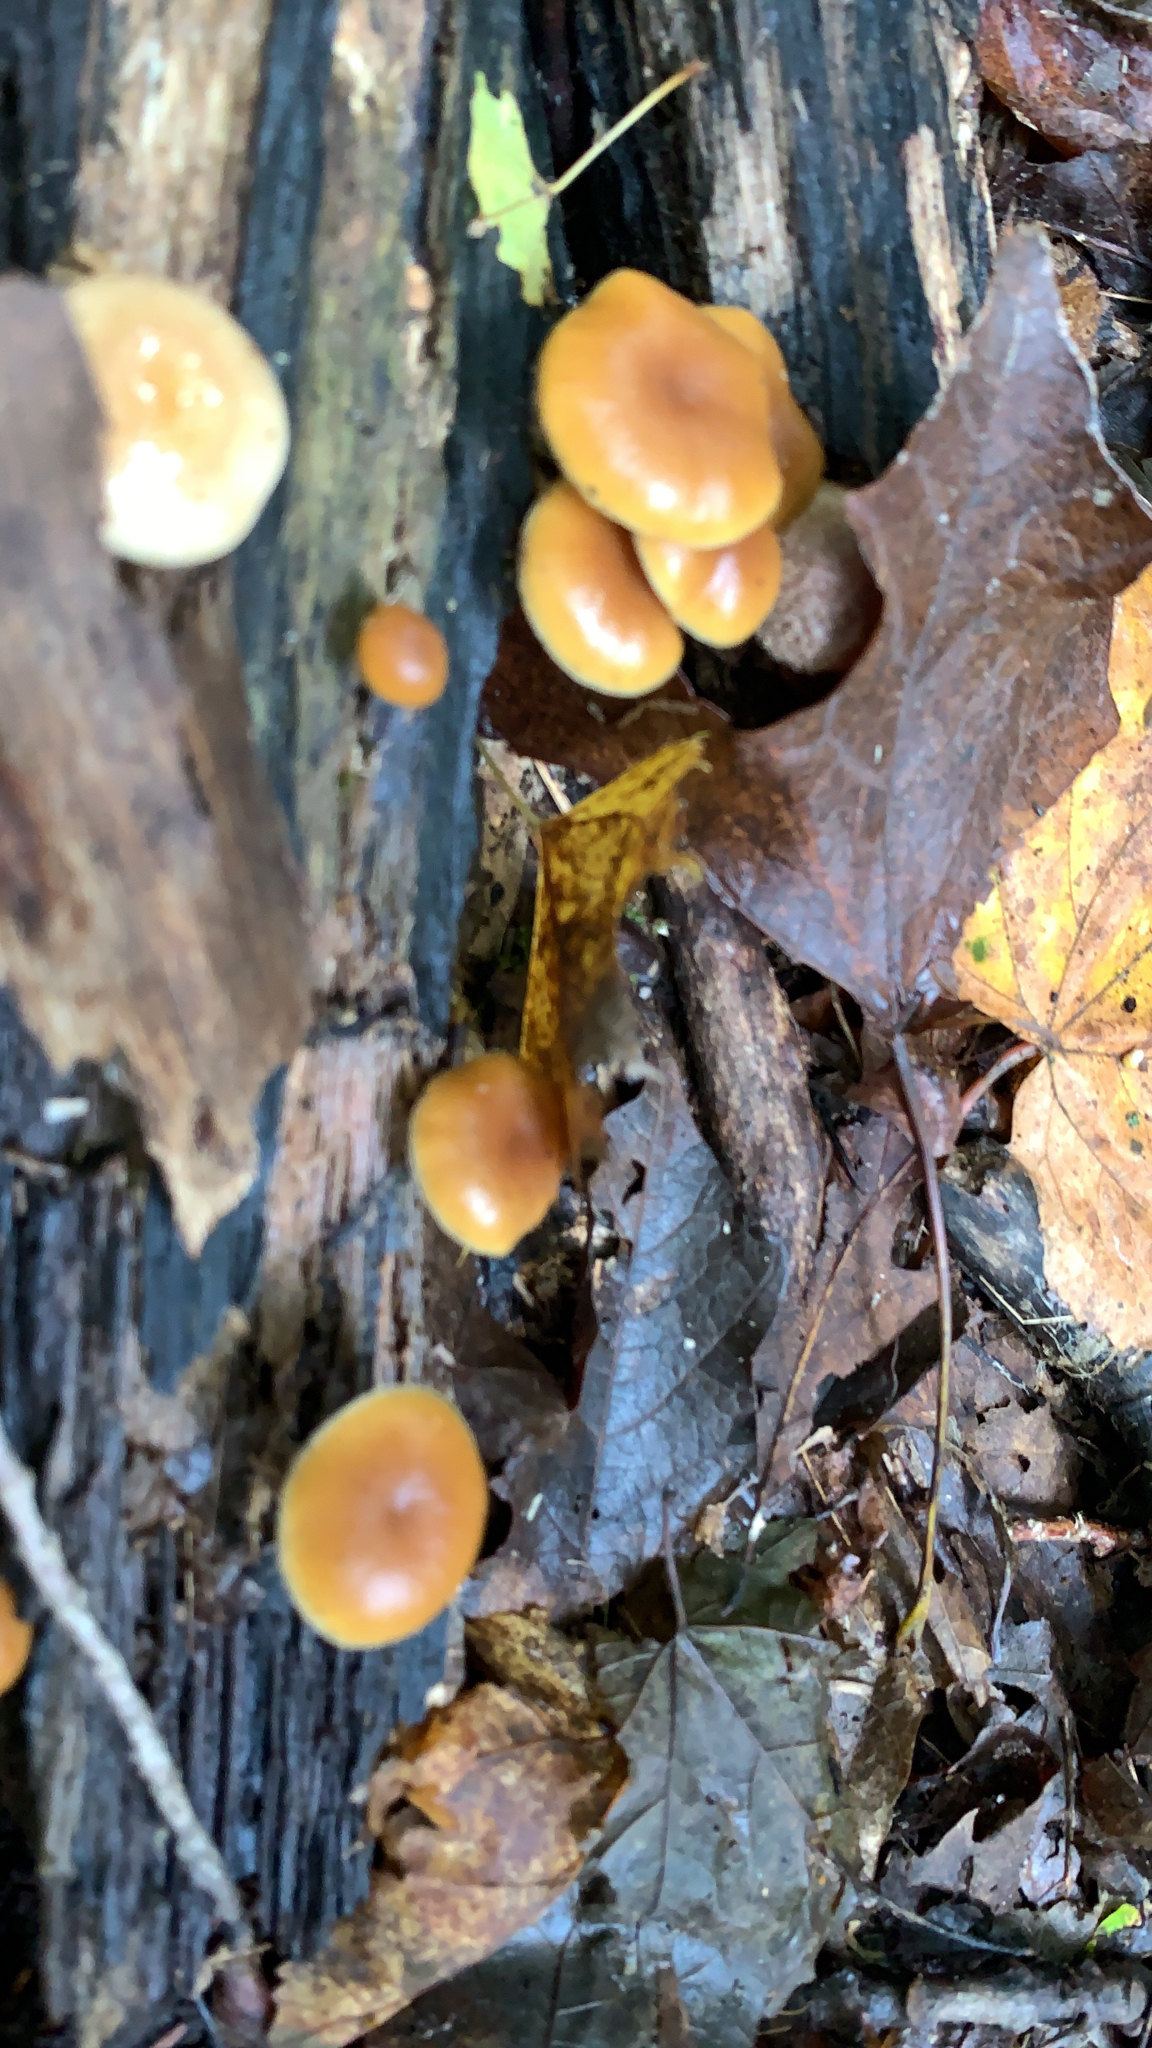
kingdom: Fungi
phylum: Basidiomycota
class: Agaricomycetes
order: Agaricales
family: Hymenogastraceae
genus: Galerina
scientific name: Galerina marginata
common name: Funeral bell
